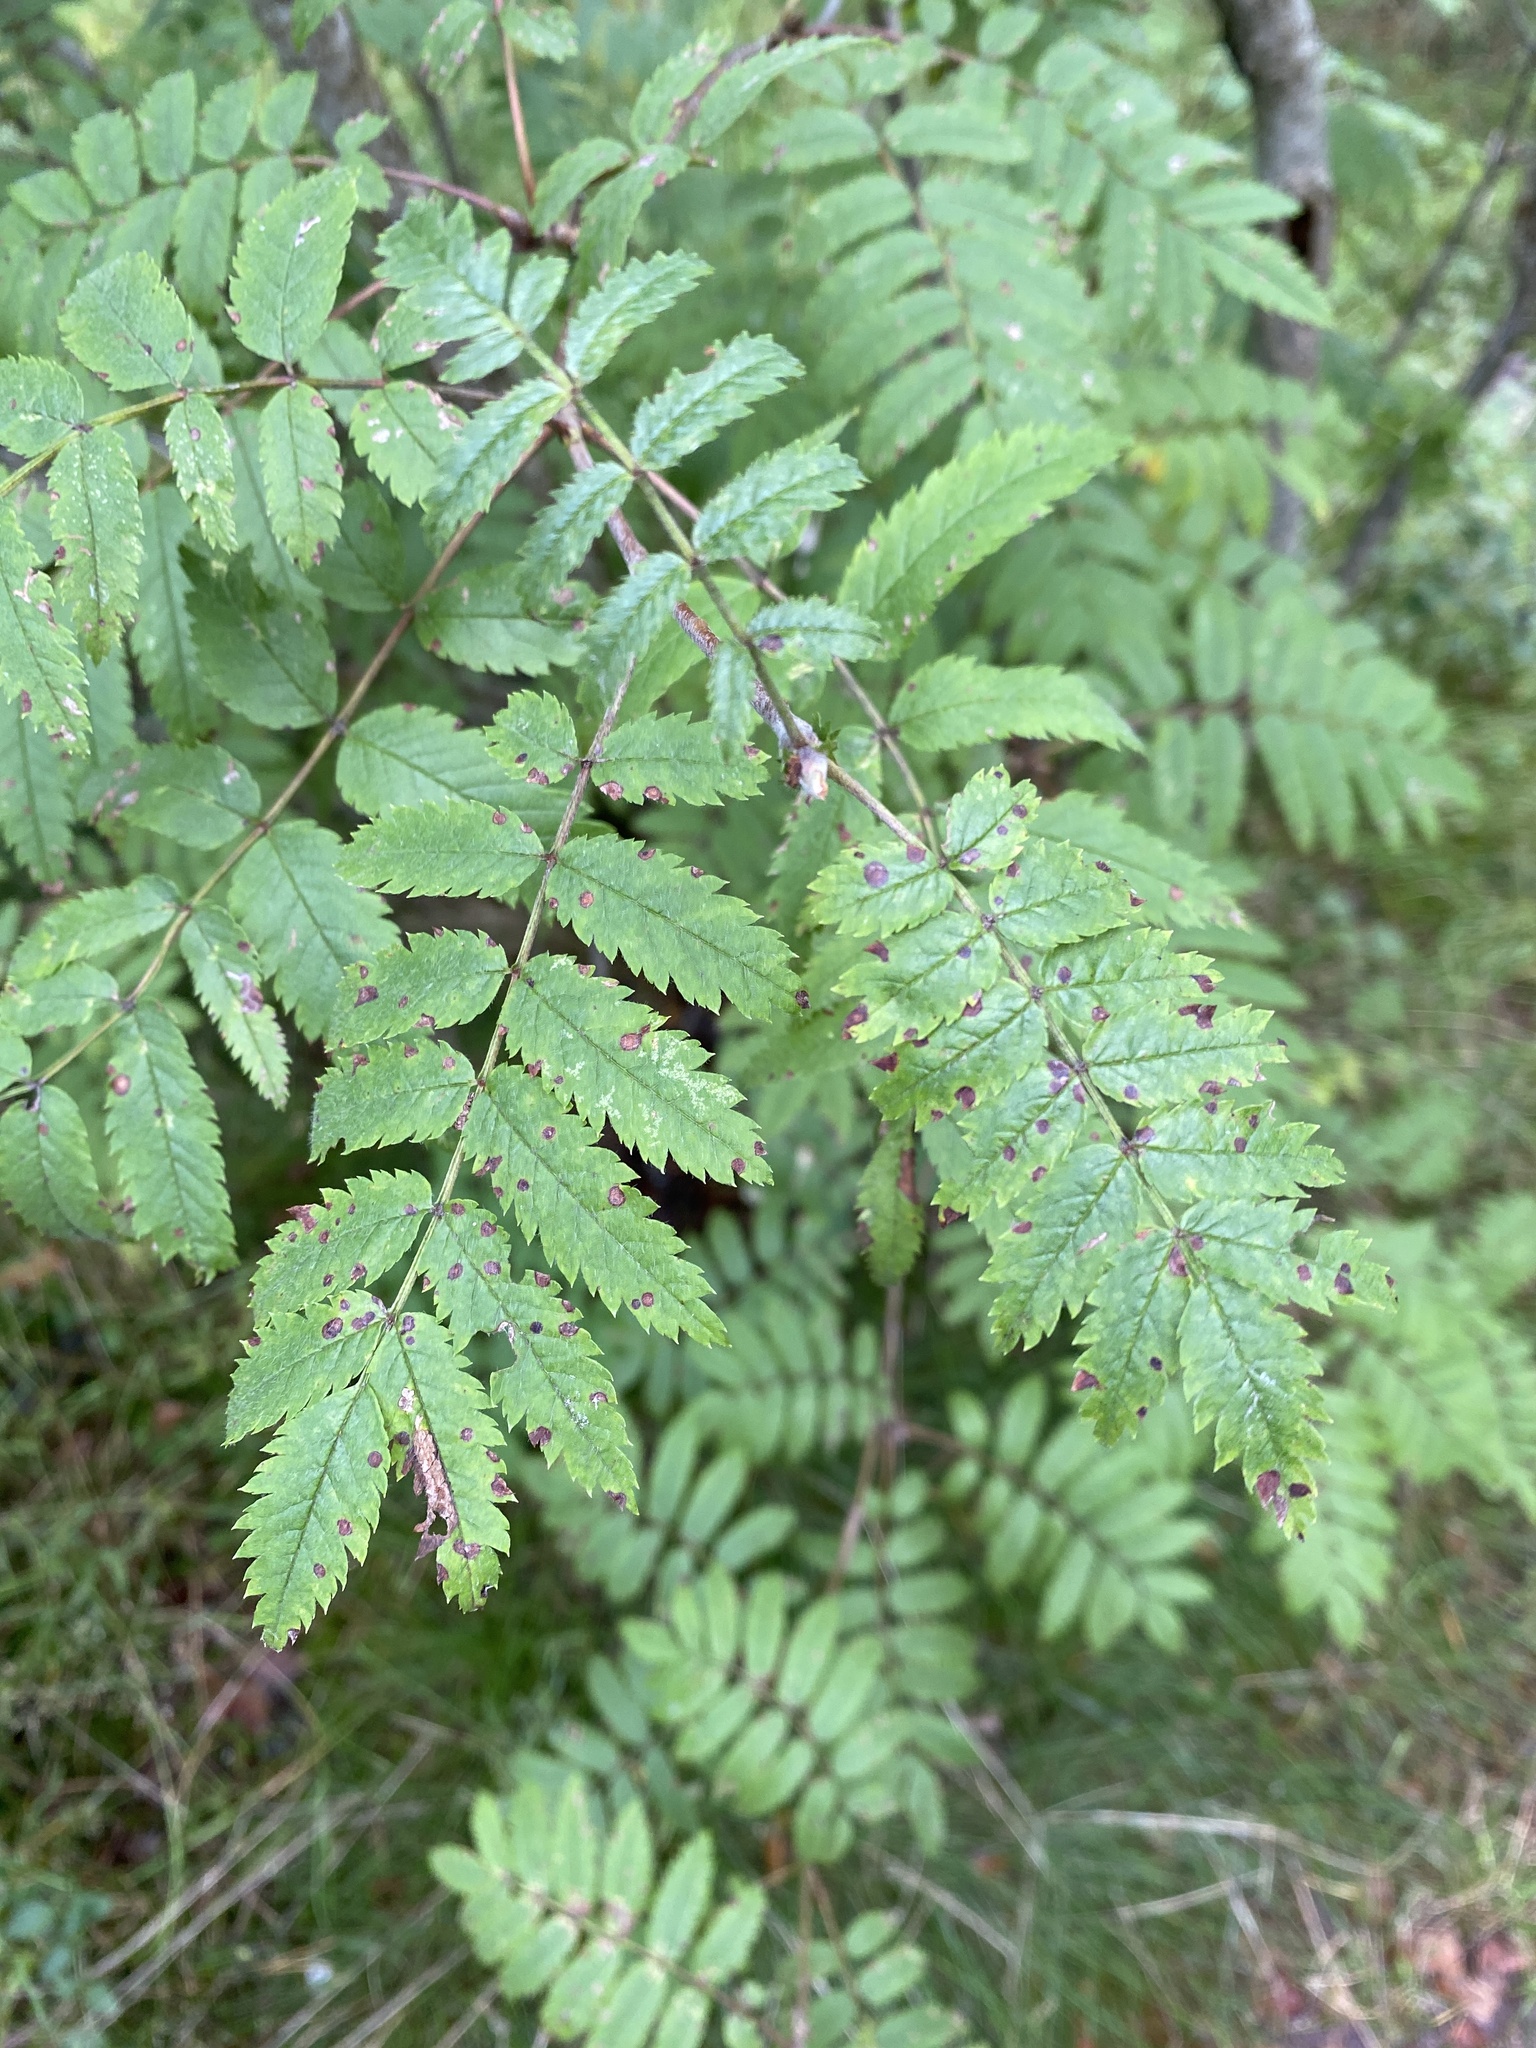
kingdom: Plantae
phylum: Tracheophyta
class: Magnoliopsida
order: Rosales
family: Rosaceae
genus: Sorbus
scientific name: Sorbus aucuparia
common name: Rowan
